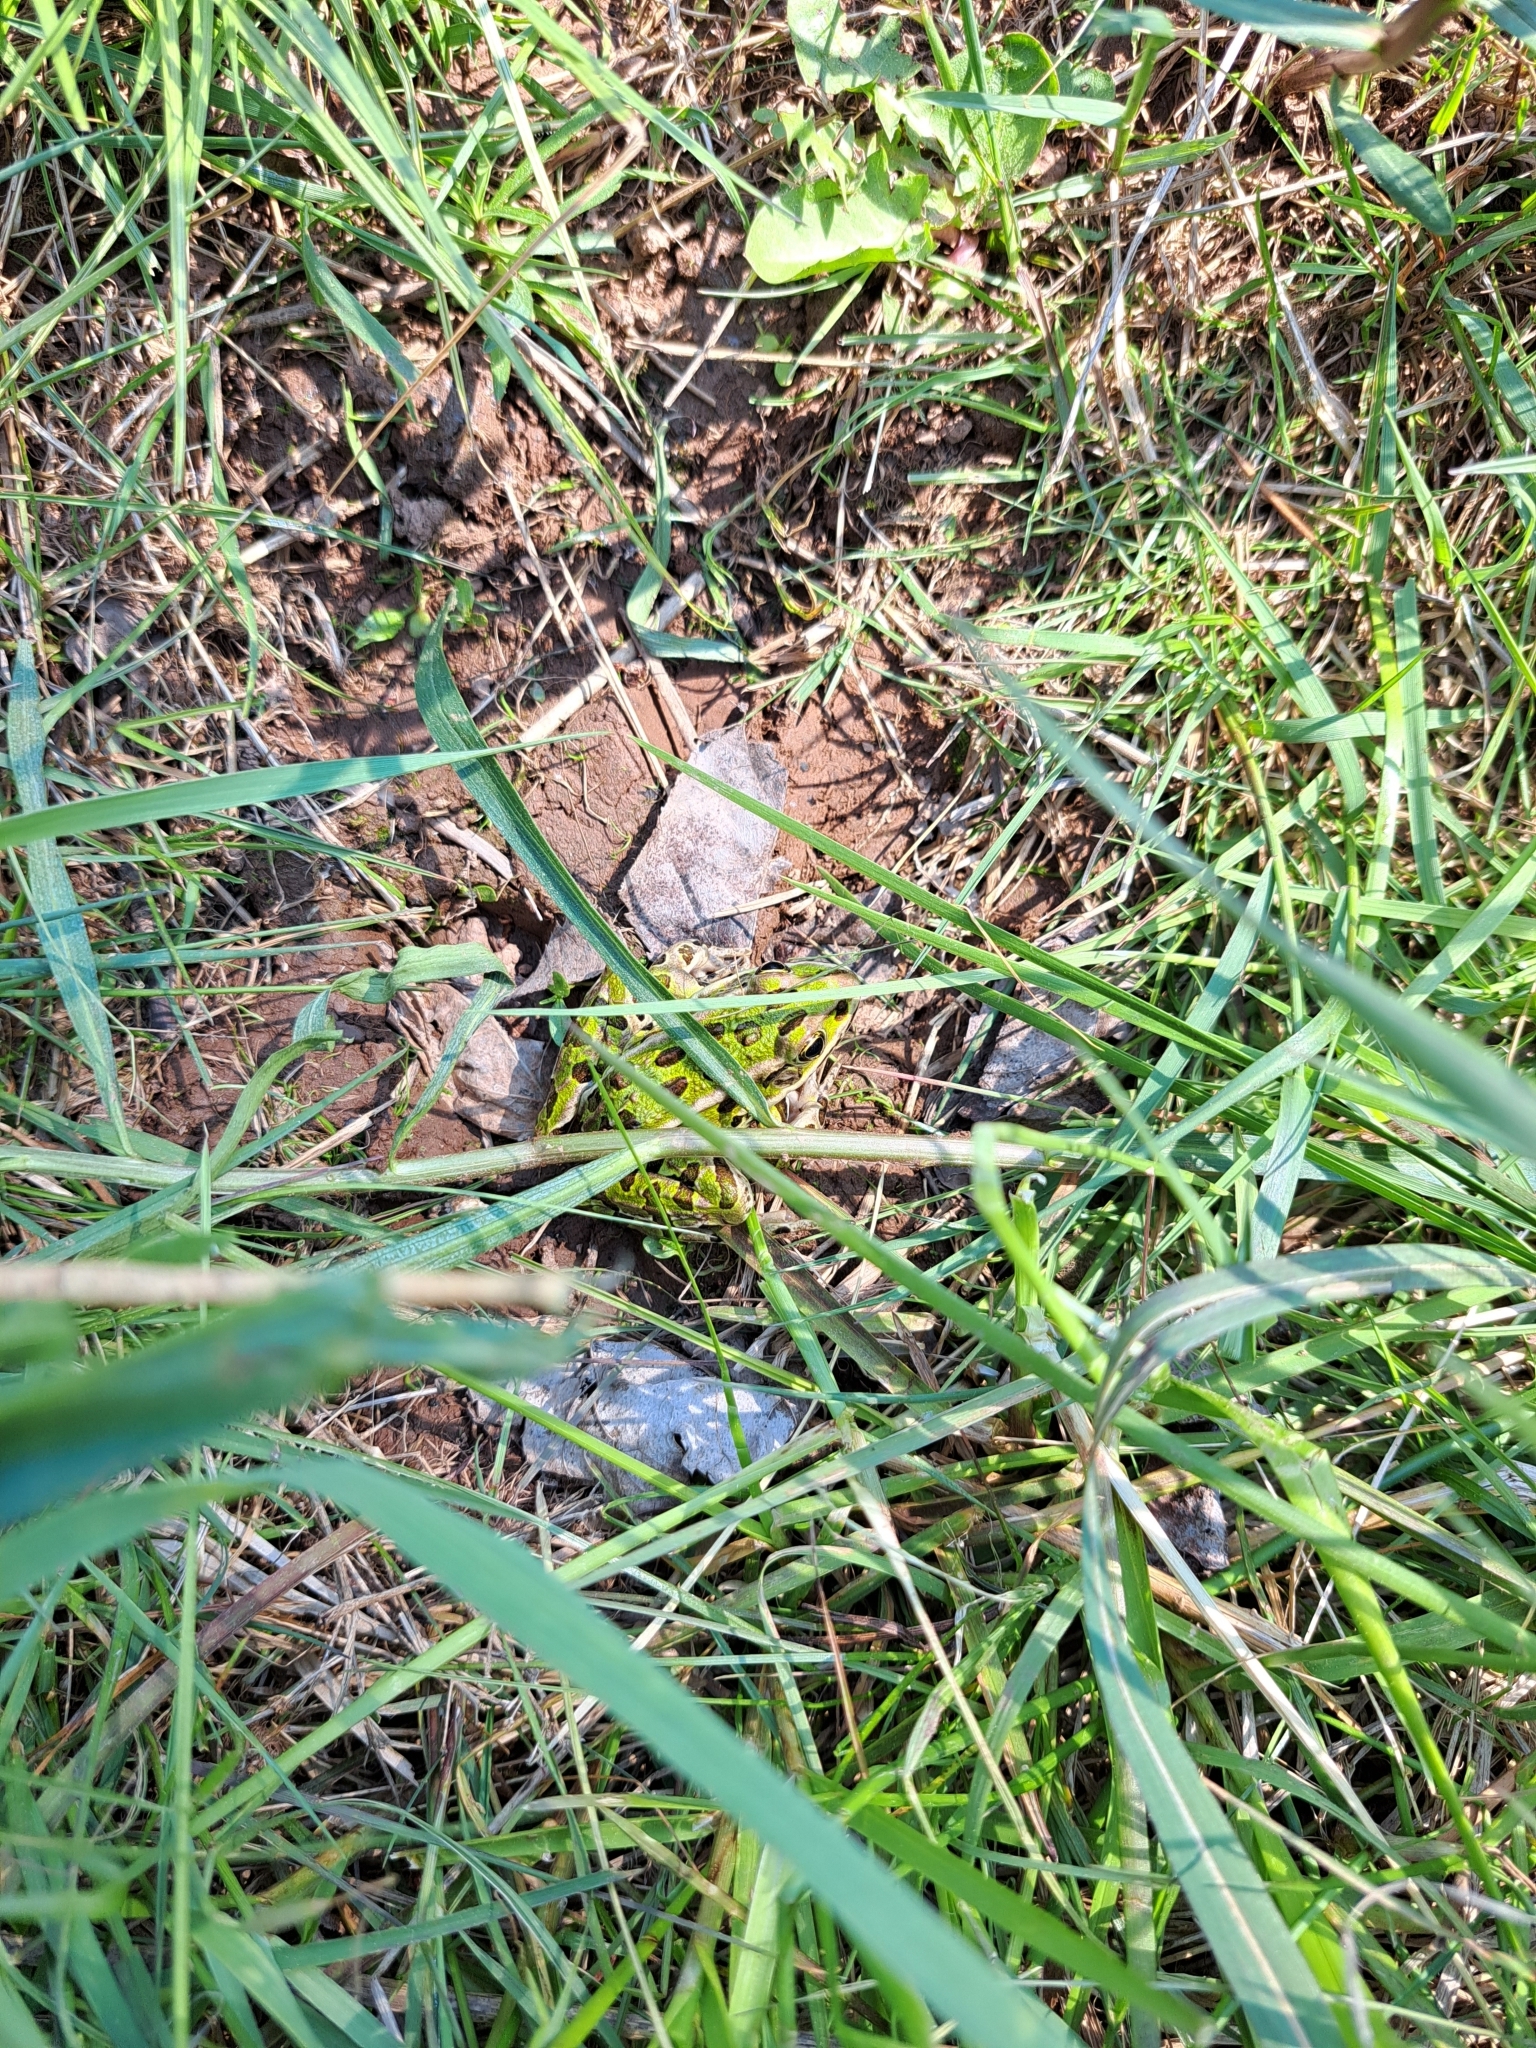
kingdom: Animalia
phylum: Chordata
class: Amphibia
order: Anura
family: Ranidae
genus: Lithobates
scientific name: Lithobates pipiens
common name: Northern leopard frog
